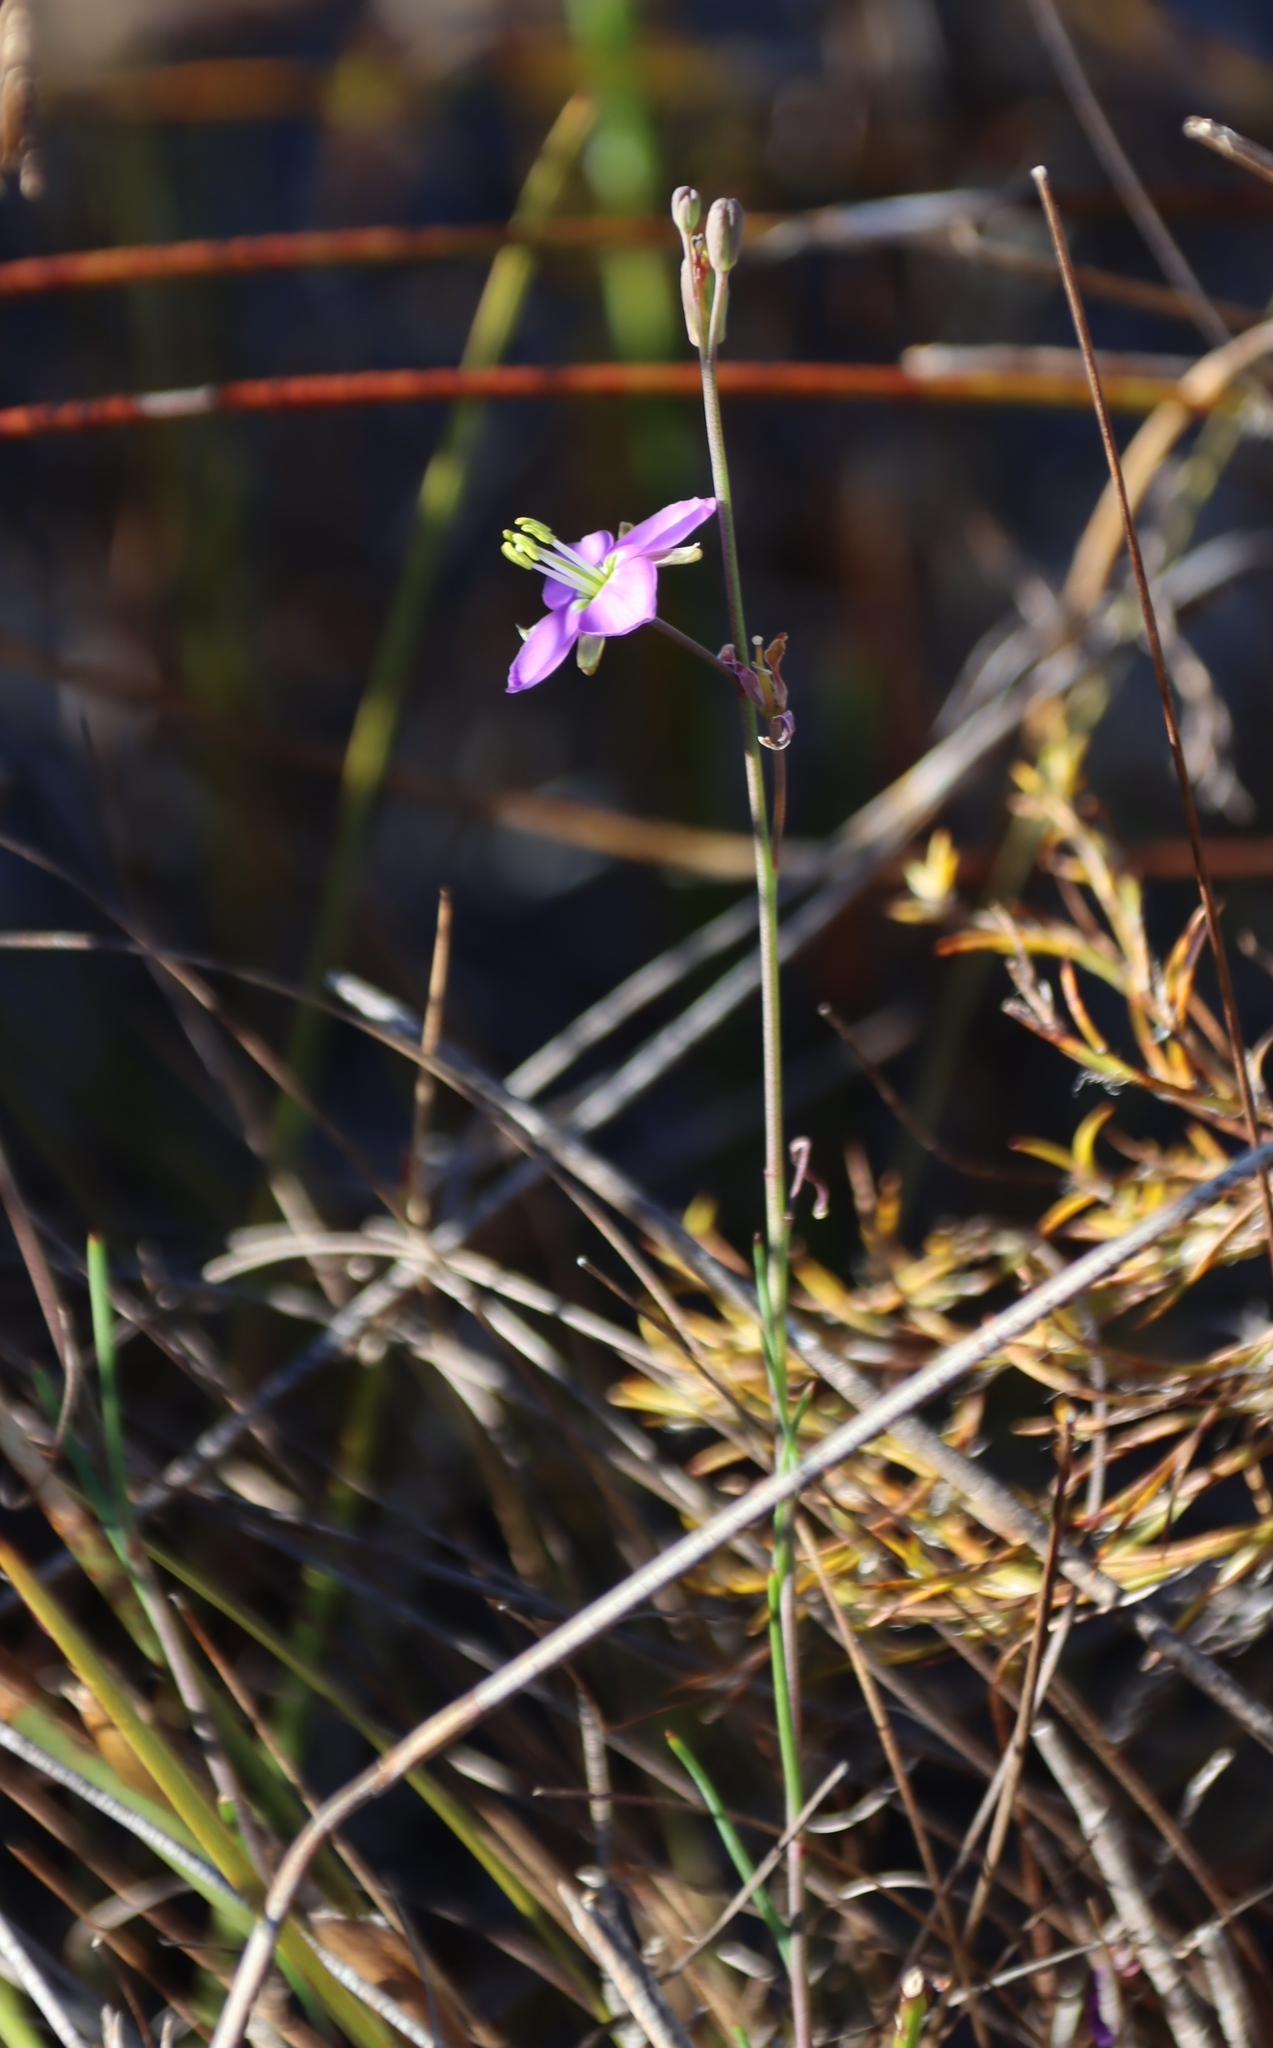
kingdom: Plantae
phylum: Tracheophyta
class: Magnoliopsida
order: Brassicales
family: Brassicaceae
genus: Heliophila
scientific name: Heliophila linearis
